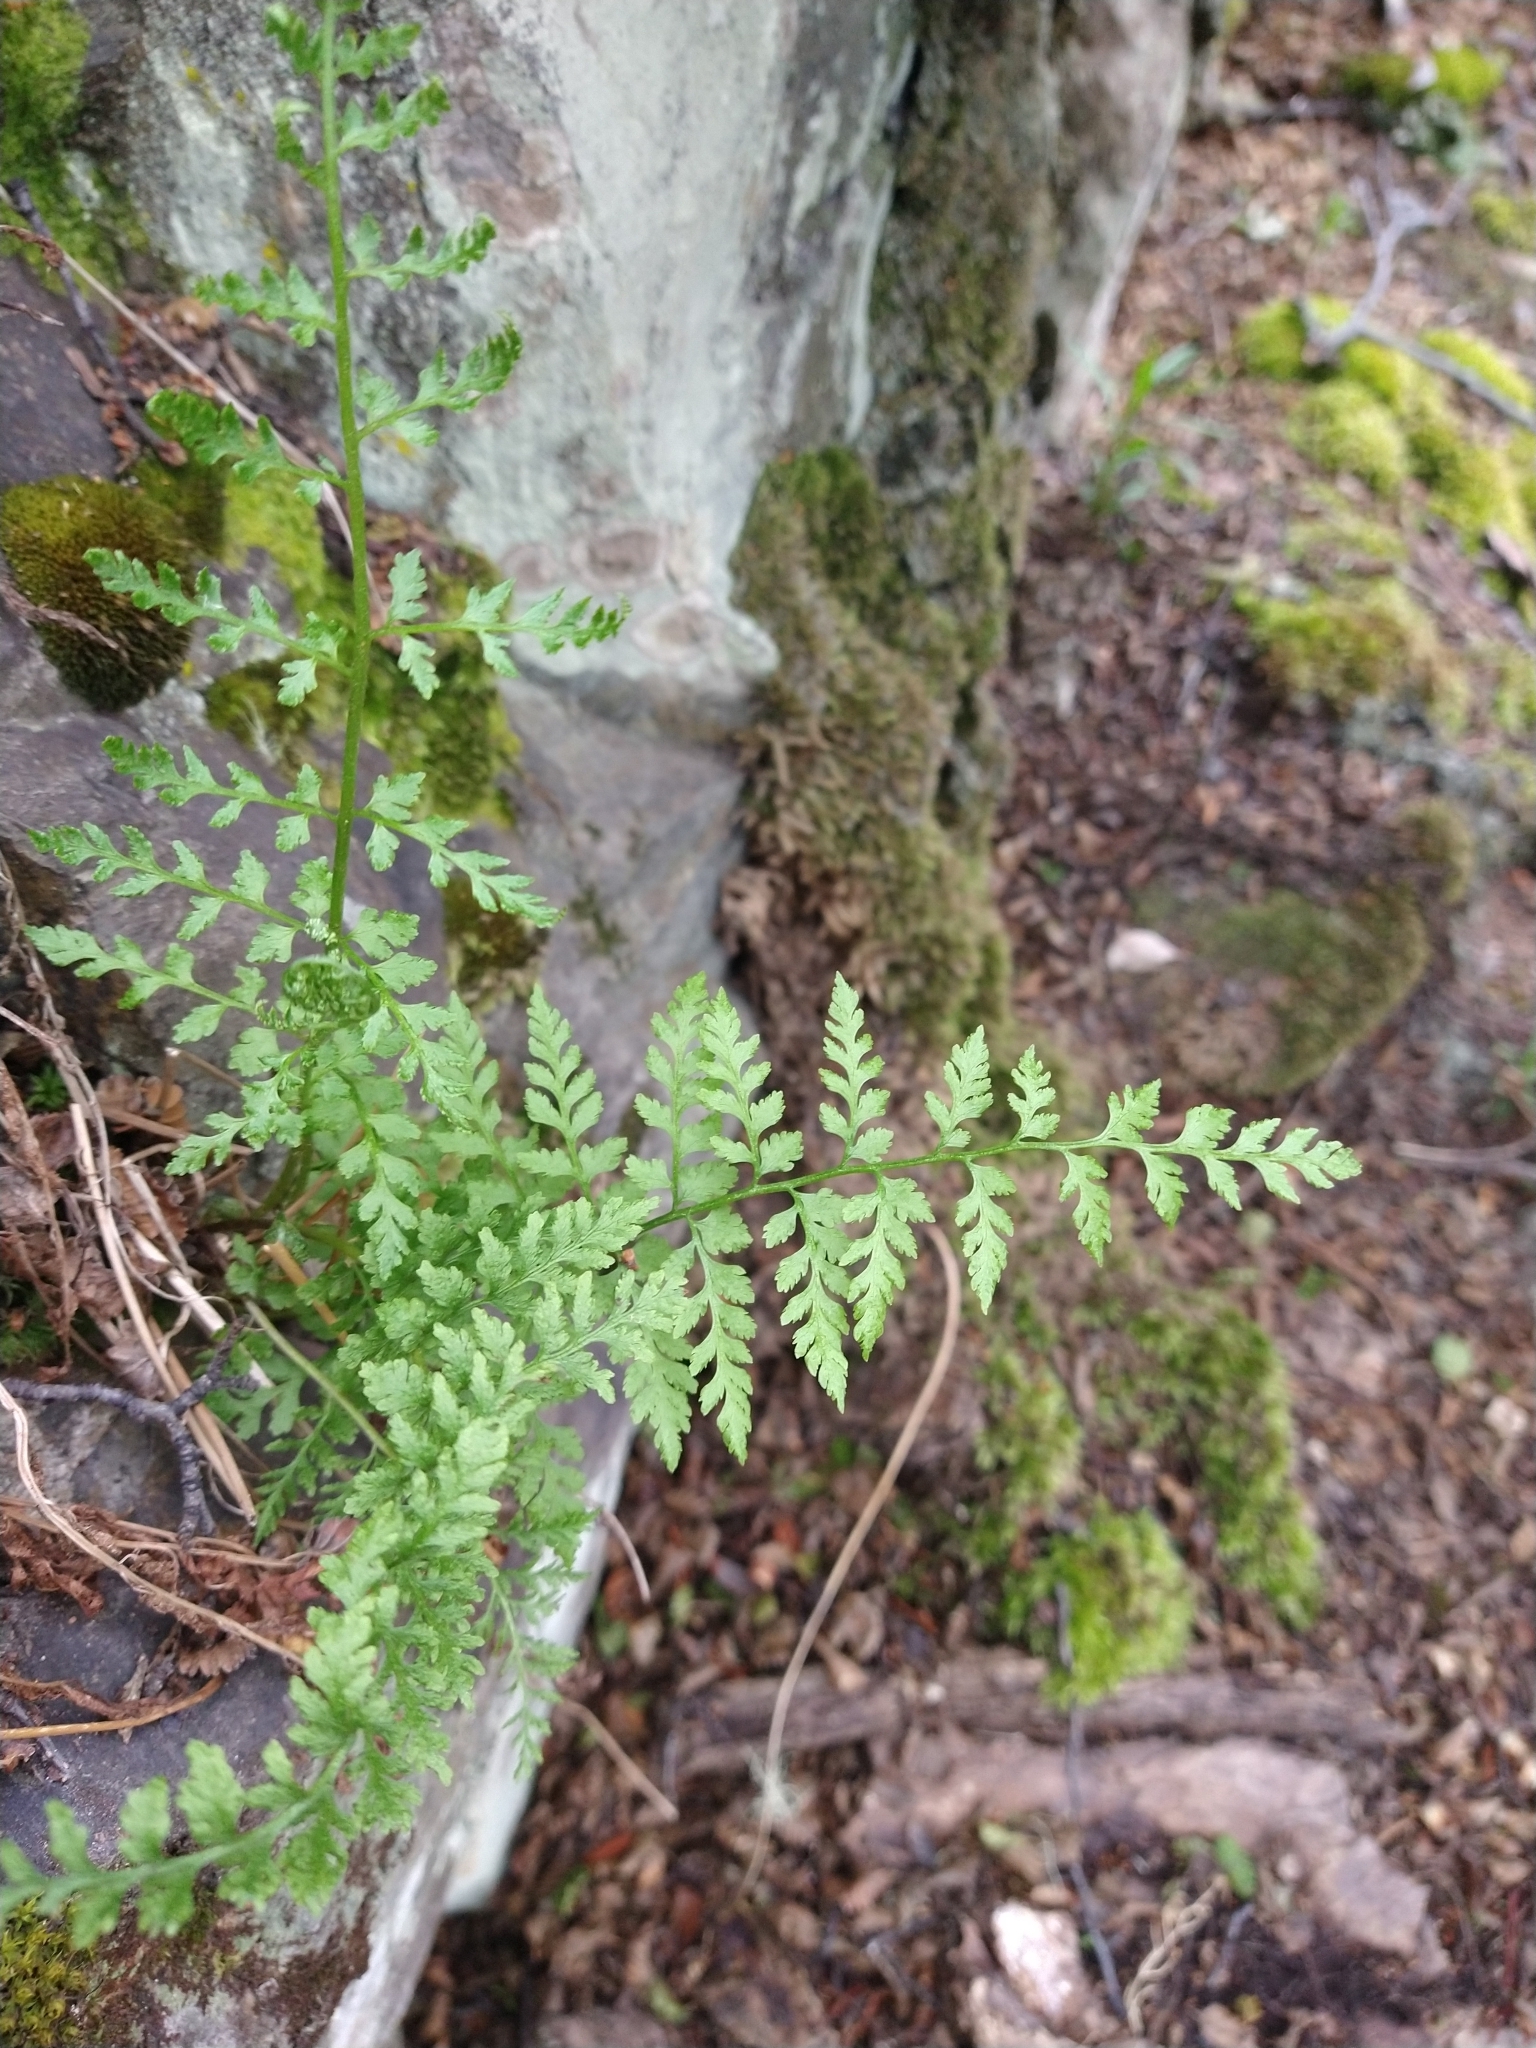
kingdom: Plantae
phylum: Tracheophyta
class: Polypodiopsida
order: Polypodiales
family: Cystopteridaceae
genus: Cystopteris
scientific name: Cystopteris fragilis
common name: Brittle bladder fern
